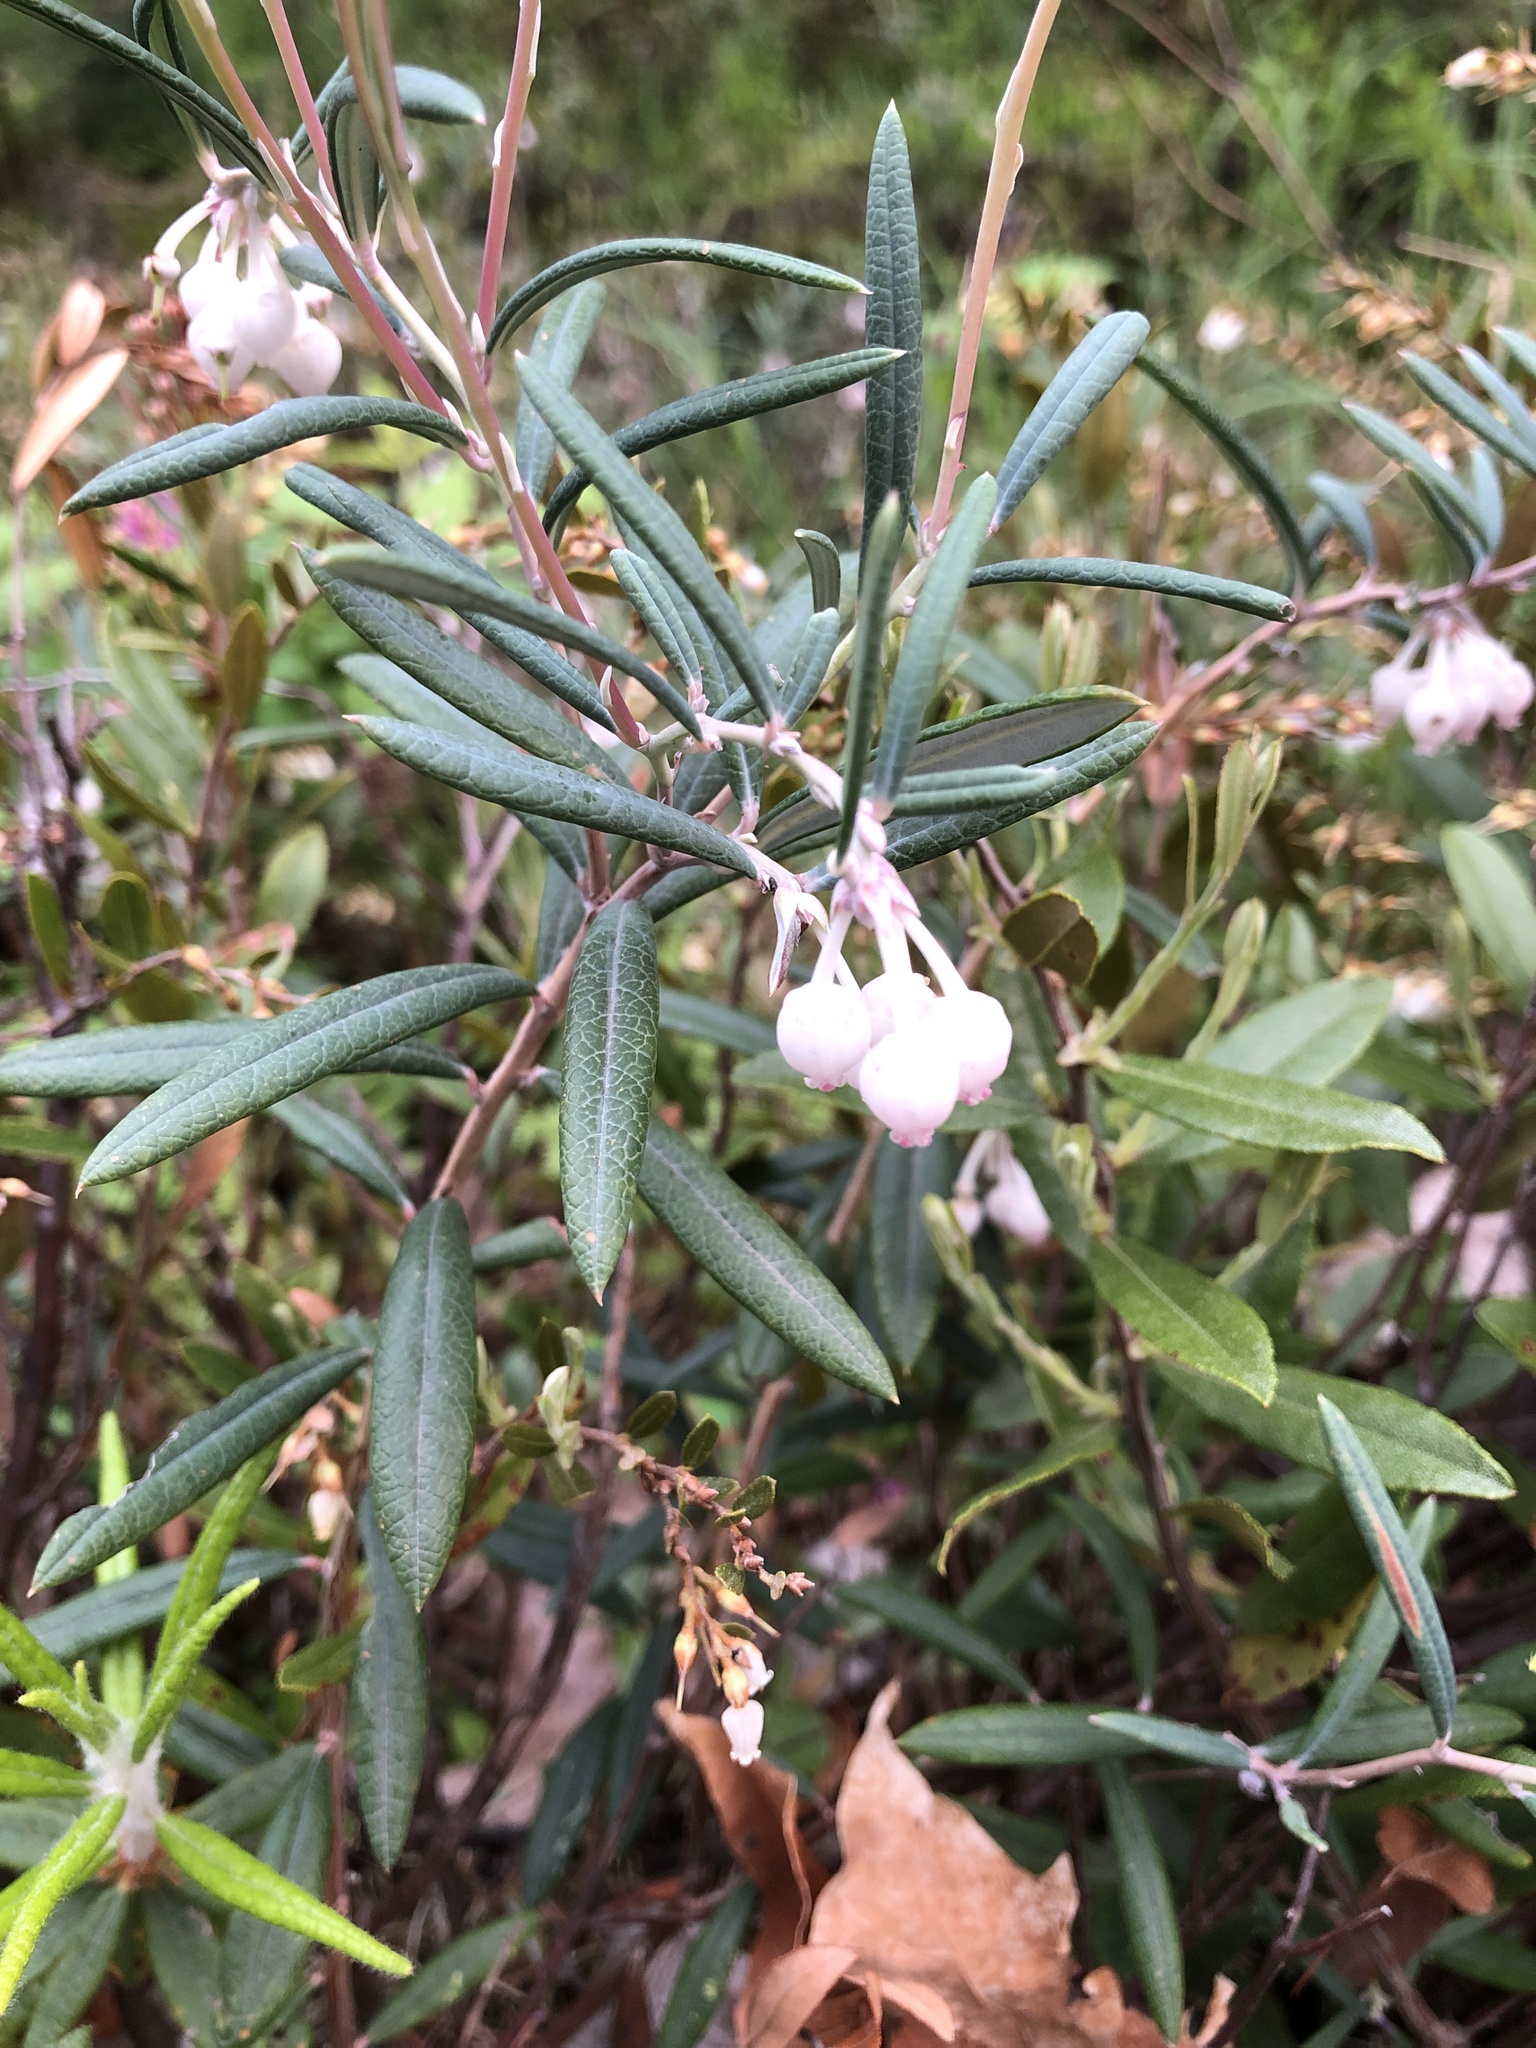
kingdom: Plantae
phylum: Tracheophyta
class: Magnoliopsida
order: Ericales
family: Ericaceae
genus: Andromeda
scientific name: Andromeda polifolia
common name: Bog-rosemary
